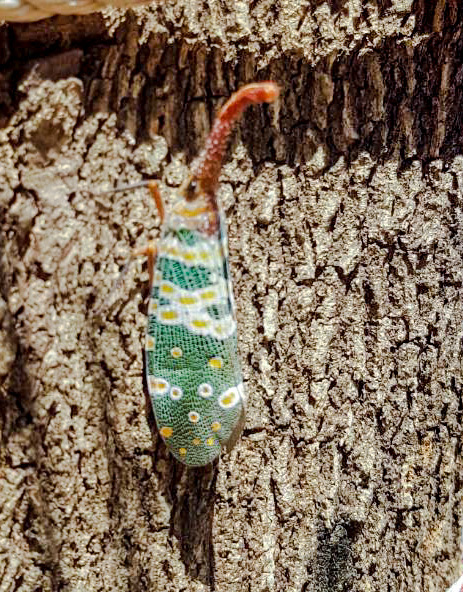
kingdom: Animalia
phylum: Arthropoda
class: Insecta
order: Hemiptera
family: Fulgoridae
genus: Pyrops
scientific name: Pyrops candelaria
